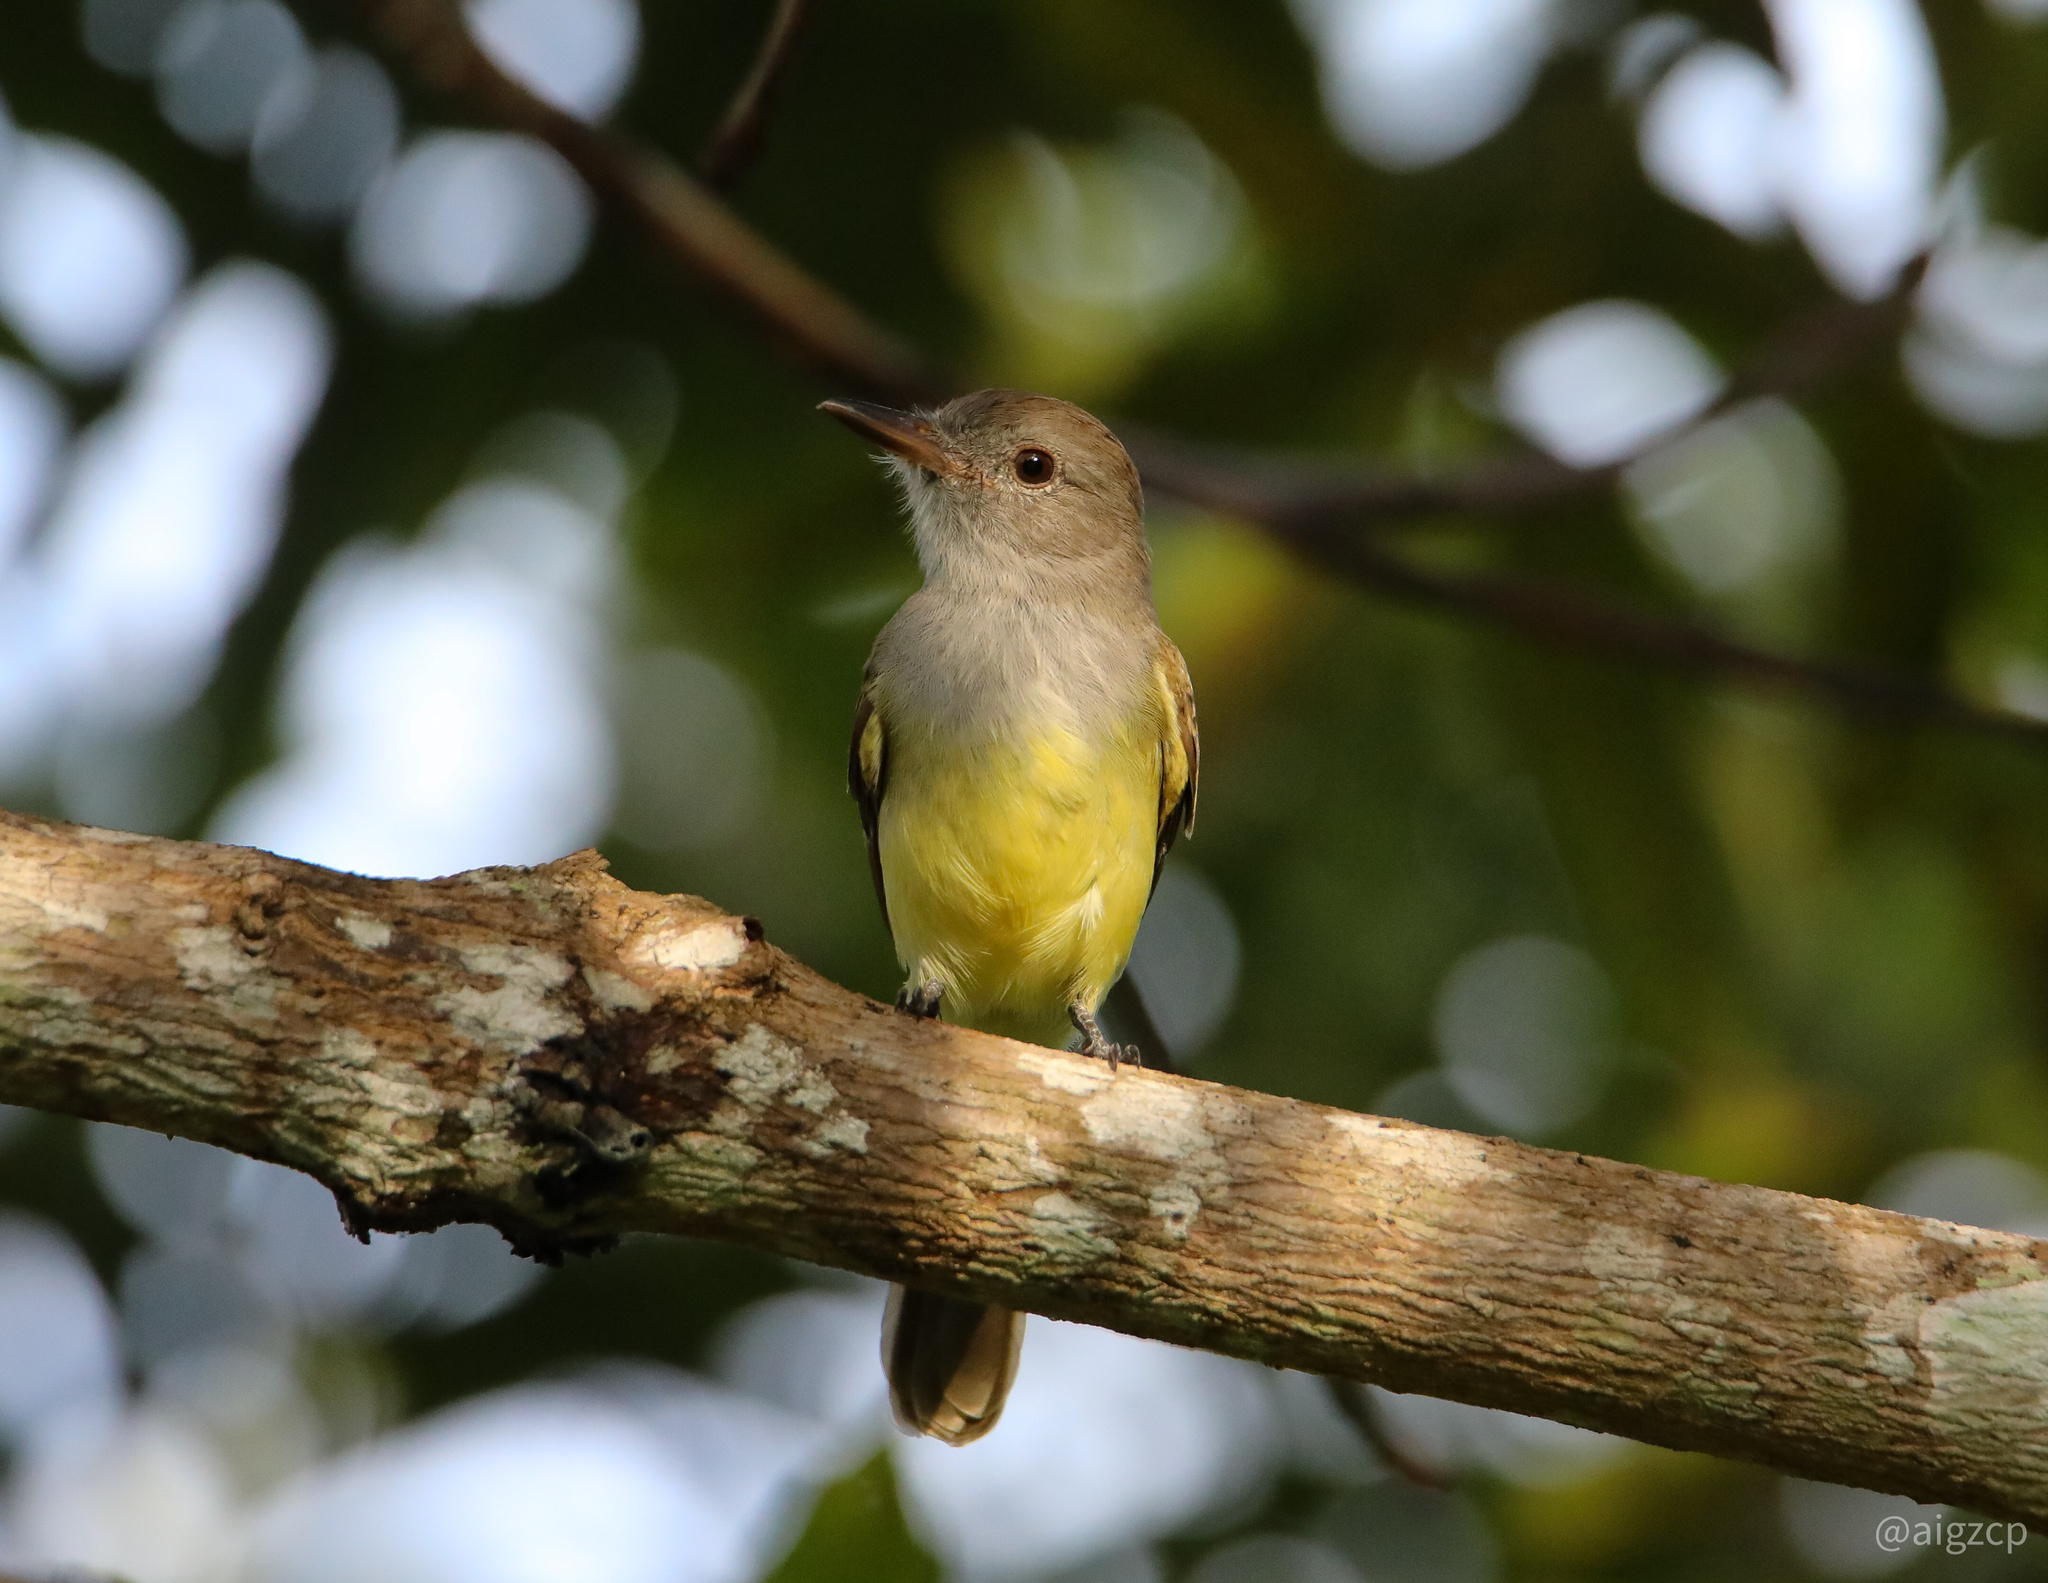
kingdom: Animalia
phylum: Chordata
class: Aves
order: Passeriformes
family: Tyrannidae
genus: Myiarchus
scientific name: Myiarchus panamensis
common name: Panama flycatcher
